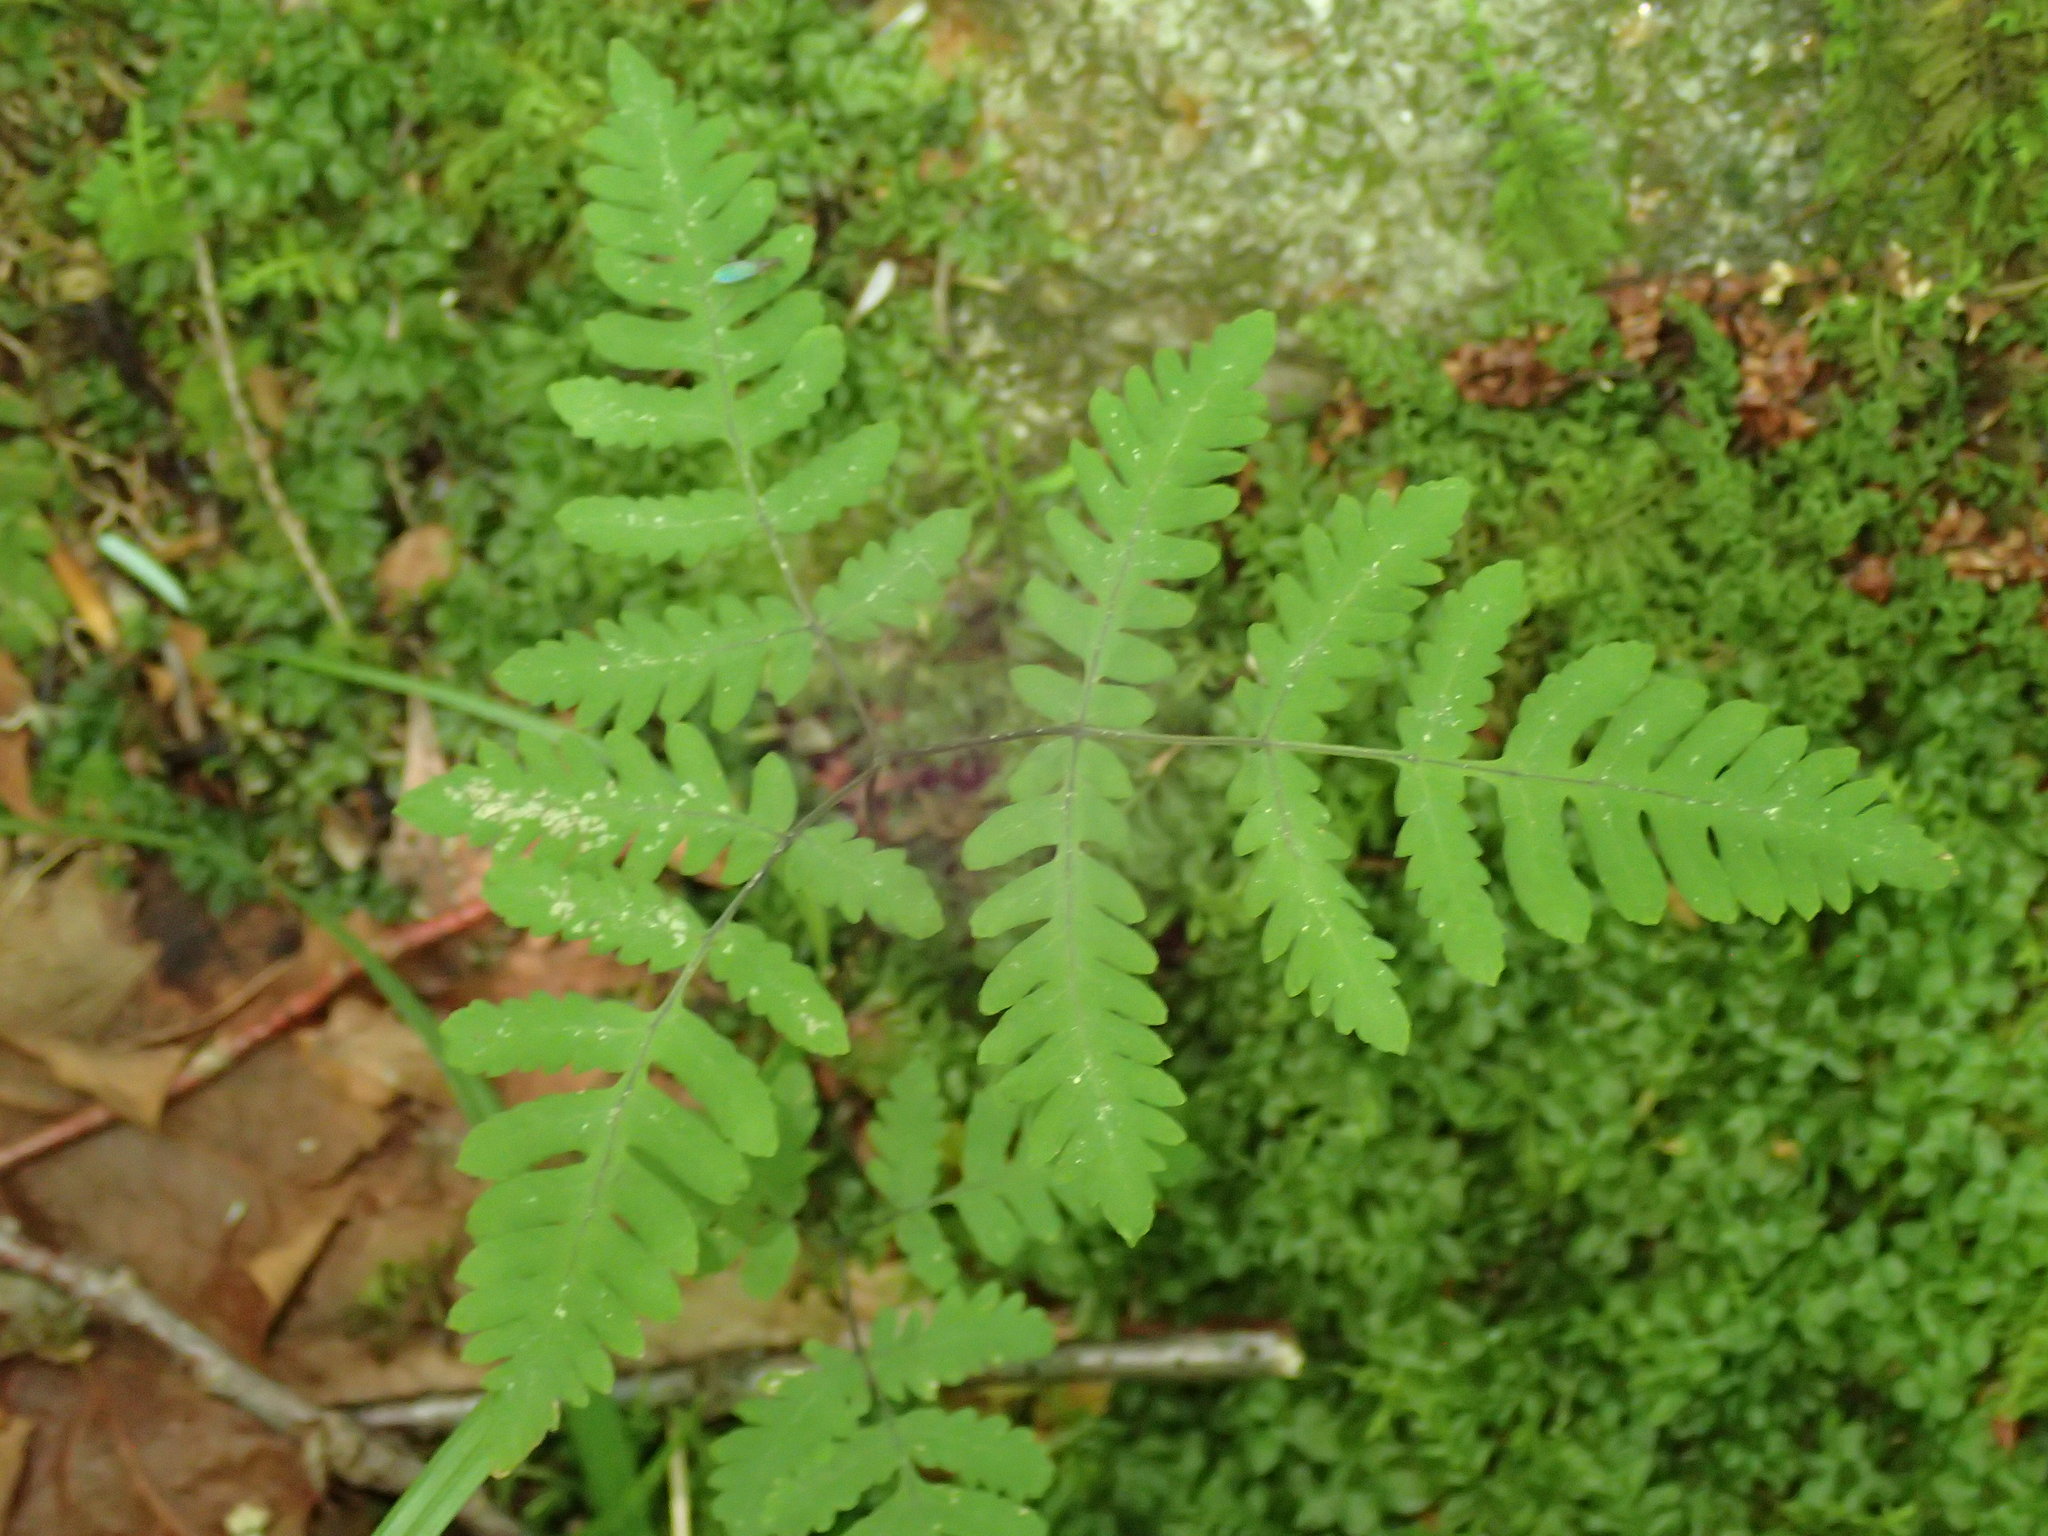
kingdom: Plantae
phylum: Tracheophyta
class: Polypodiopsida
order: Polypodiales
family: Cystopteridaceae
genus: Gymnocarpium
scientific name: Gymnocarpium dryopteris
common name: Oak fern
